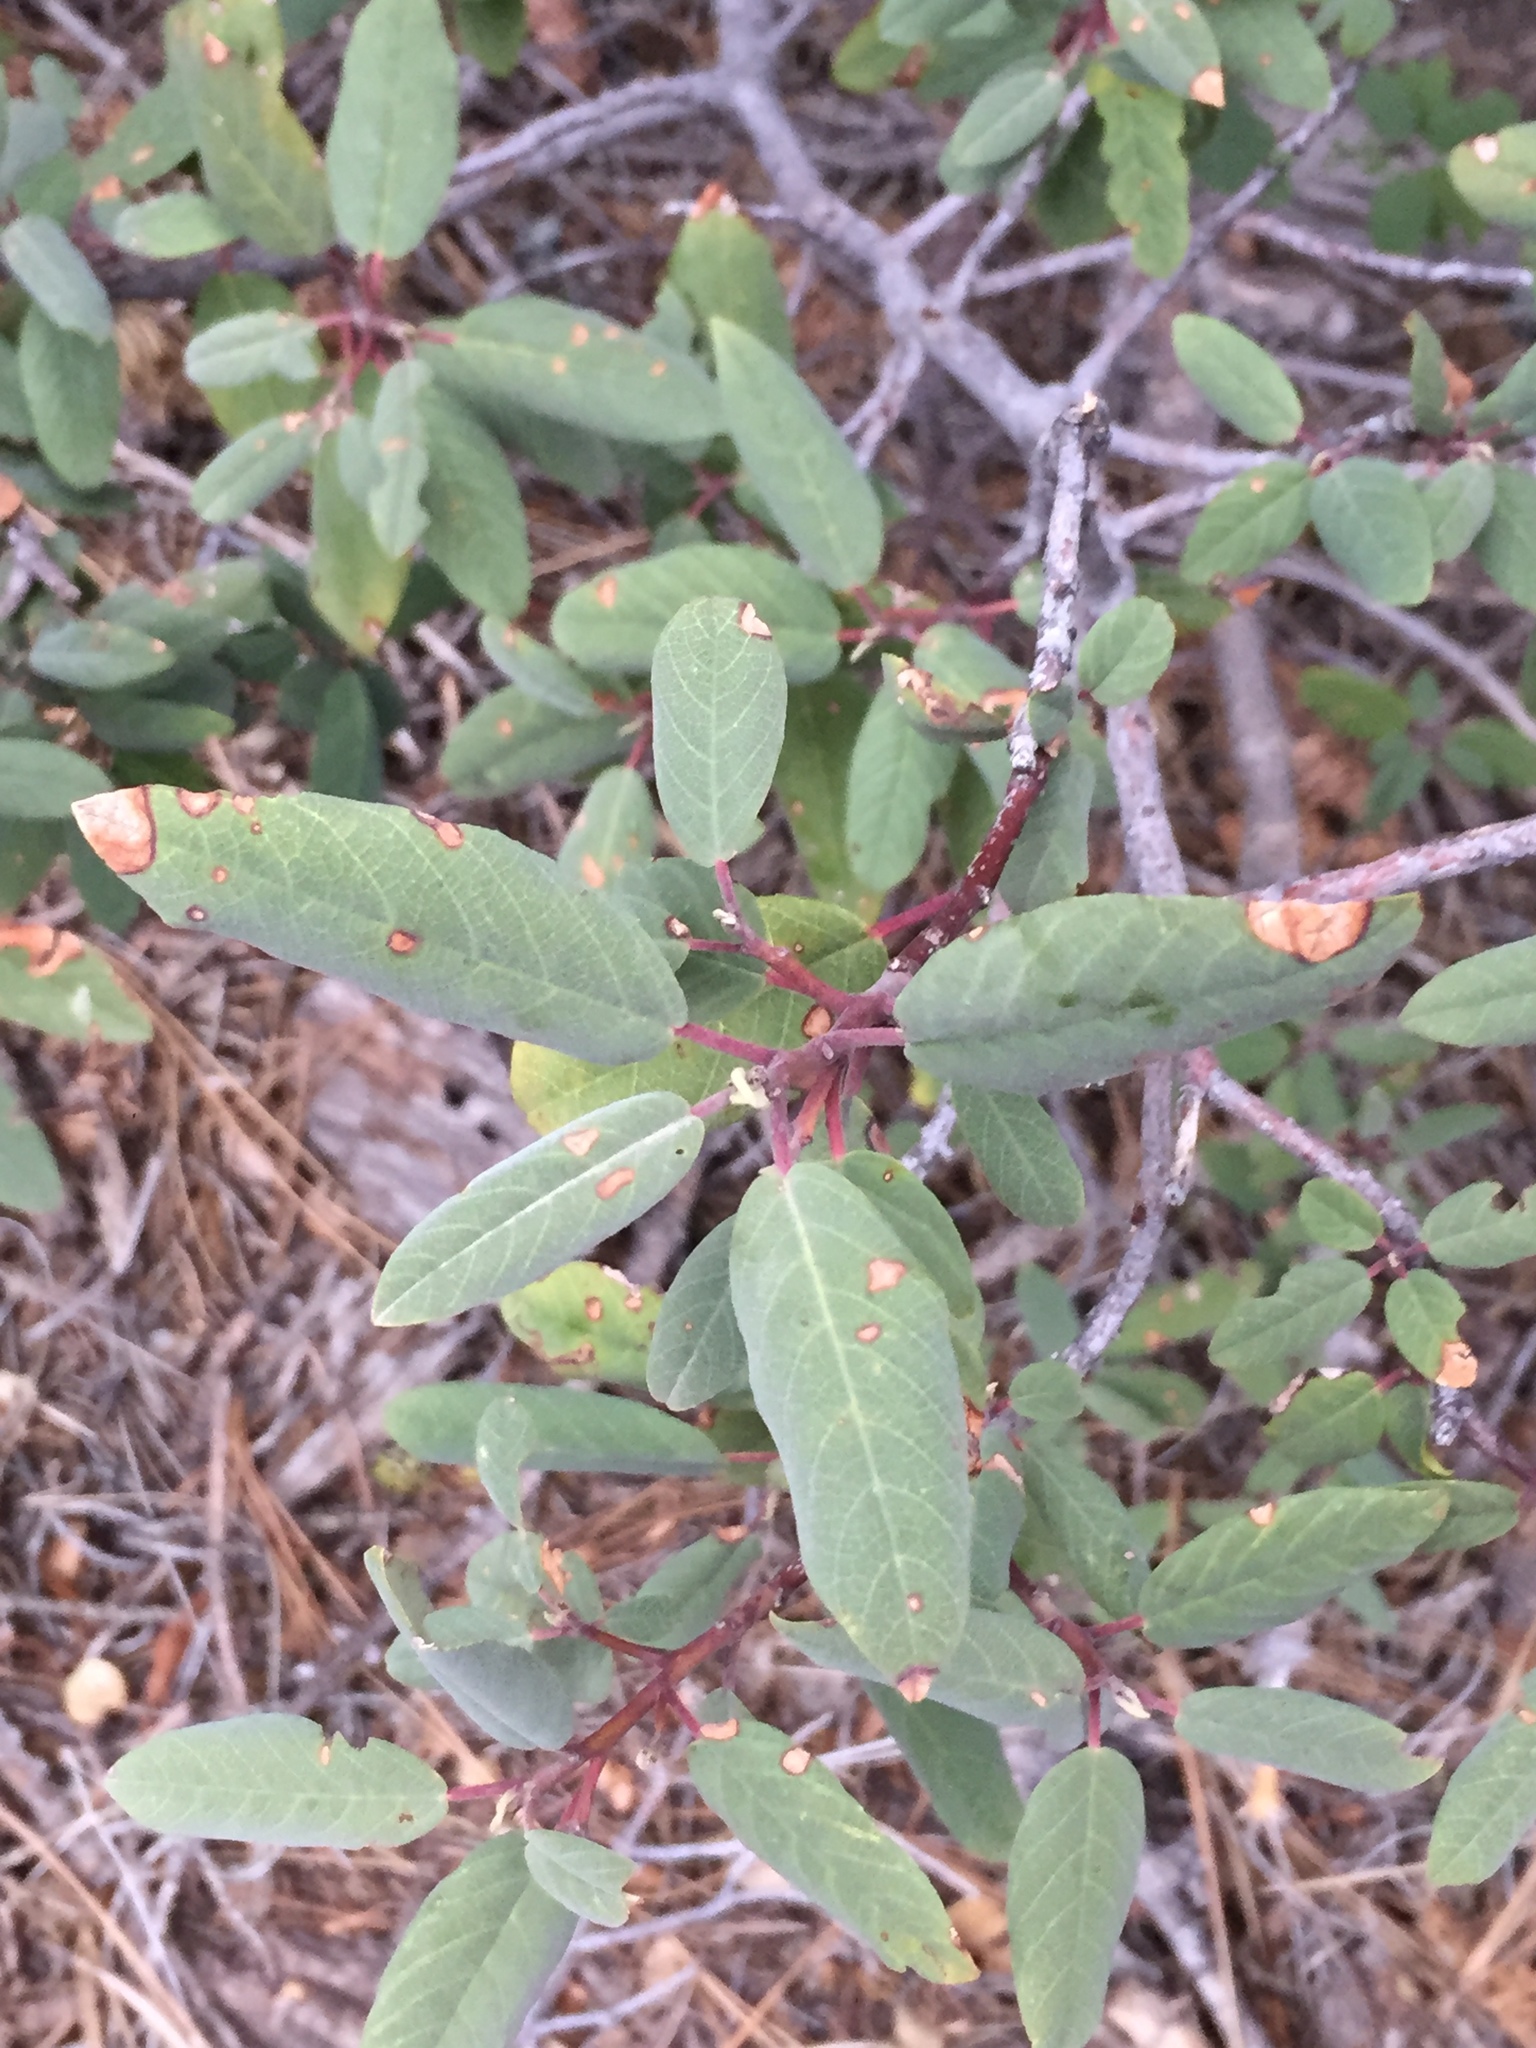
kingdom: Plantae
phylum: Tracheophyta
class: Magnoliopsida
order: Rosales
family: Rhamnaceae
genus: Frangula
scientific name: Frangula californica
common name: California buckthorn
